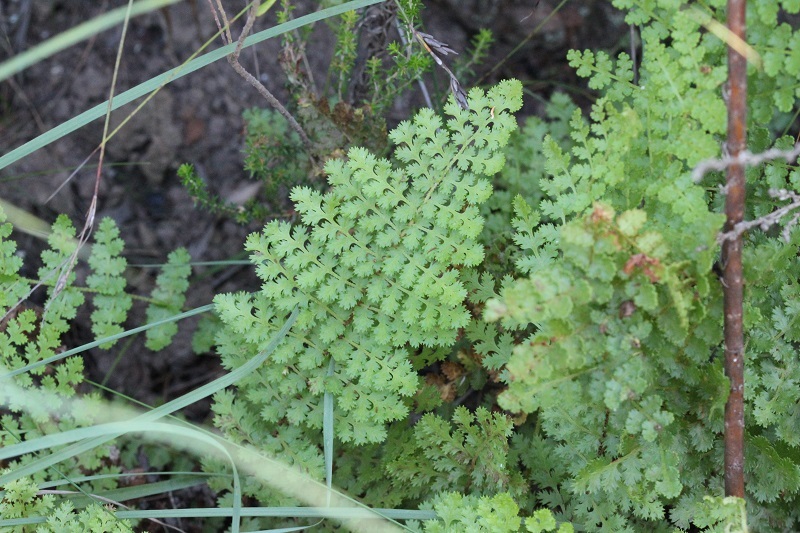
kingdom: Plantae
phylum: Tracheophyta
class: Polypodiopsida
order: Schizaeales
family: Anemiaceae
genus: Anemia
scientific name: Anemia caffrorum
